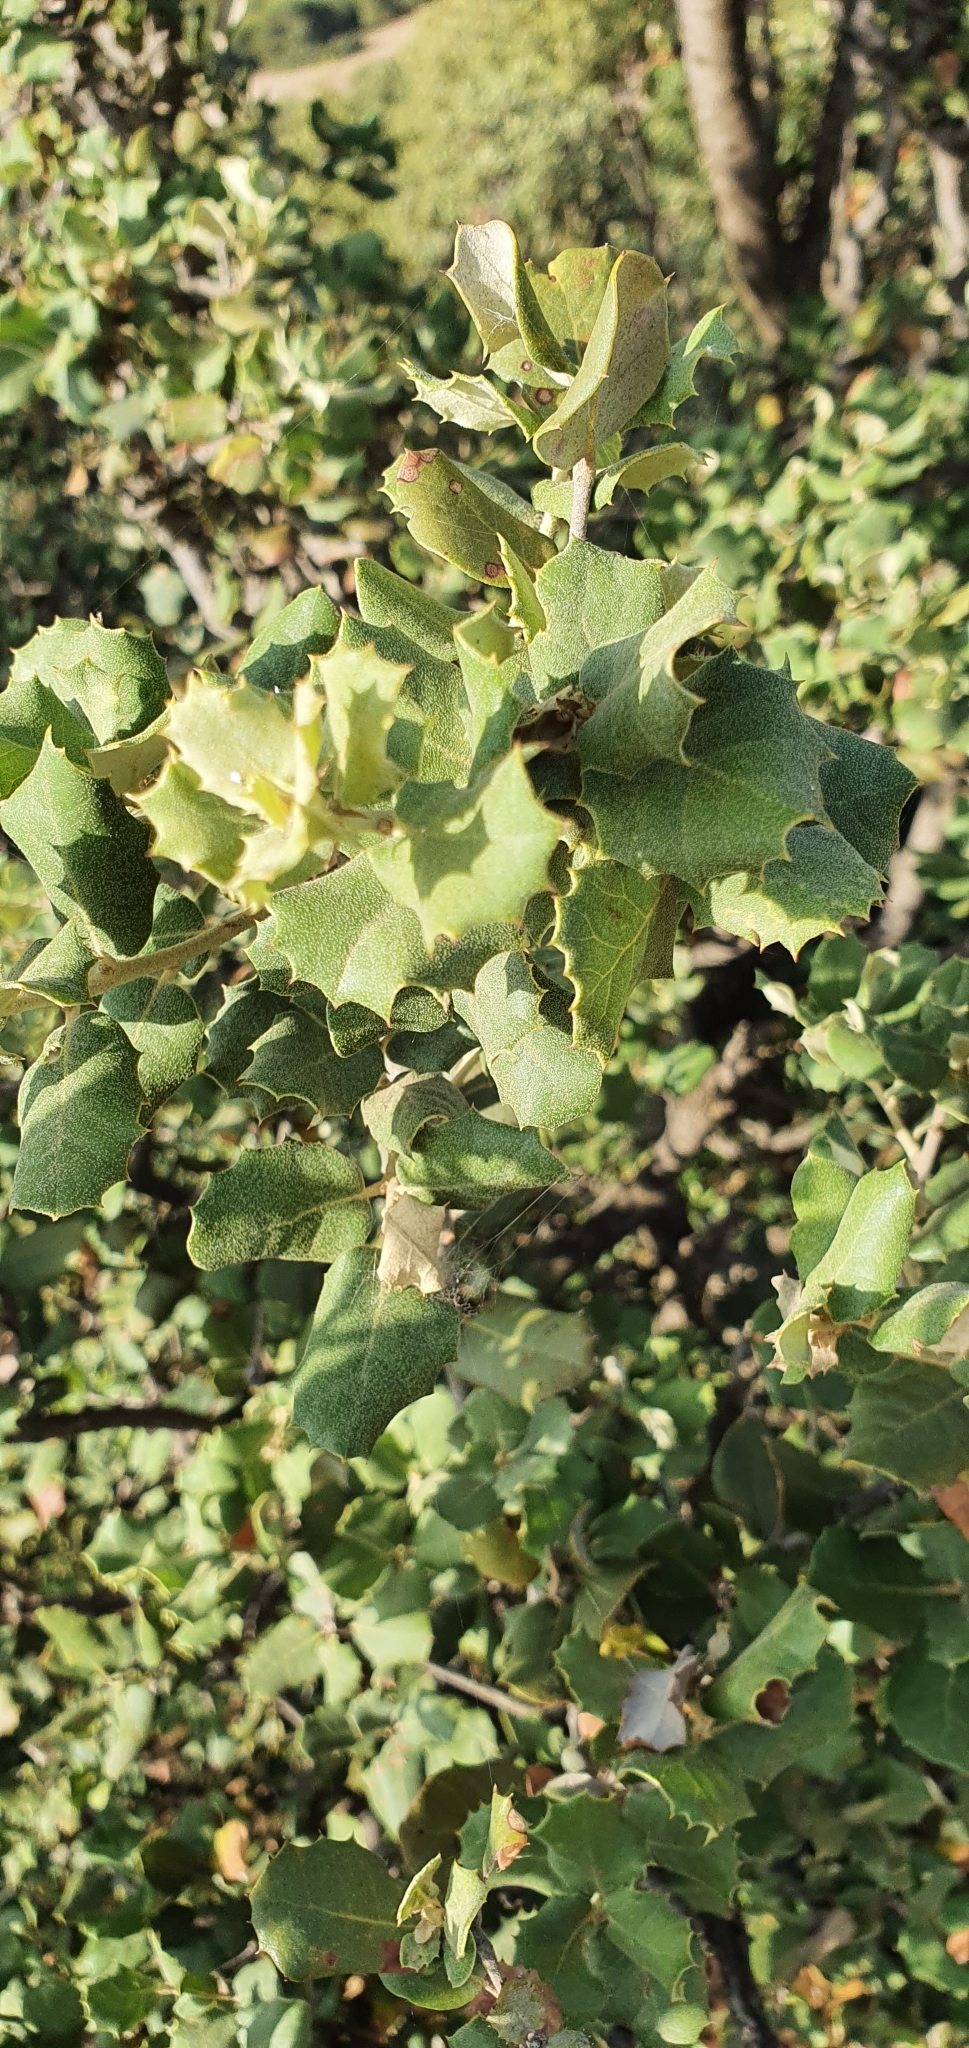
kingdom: Plantae
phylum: Tracheophyta
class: Magnoliopsida
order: Fagales
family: Fagaceae
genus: Quercus
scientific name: Quercus rotundifolia
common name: Holm oak
